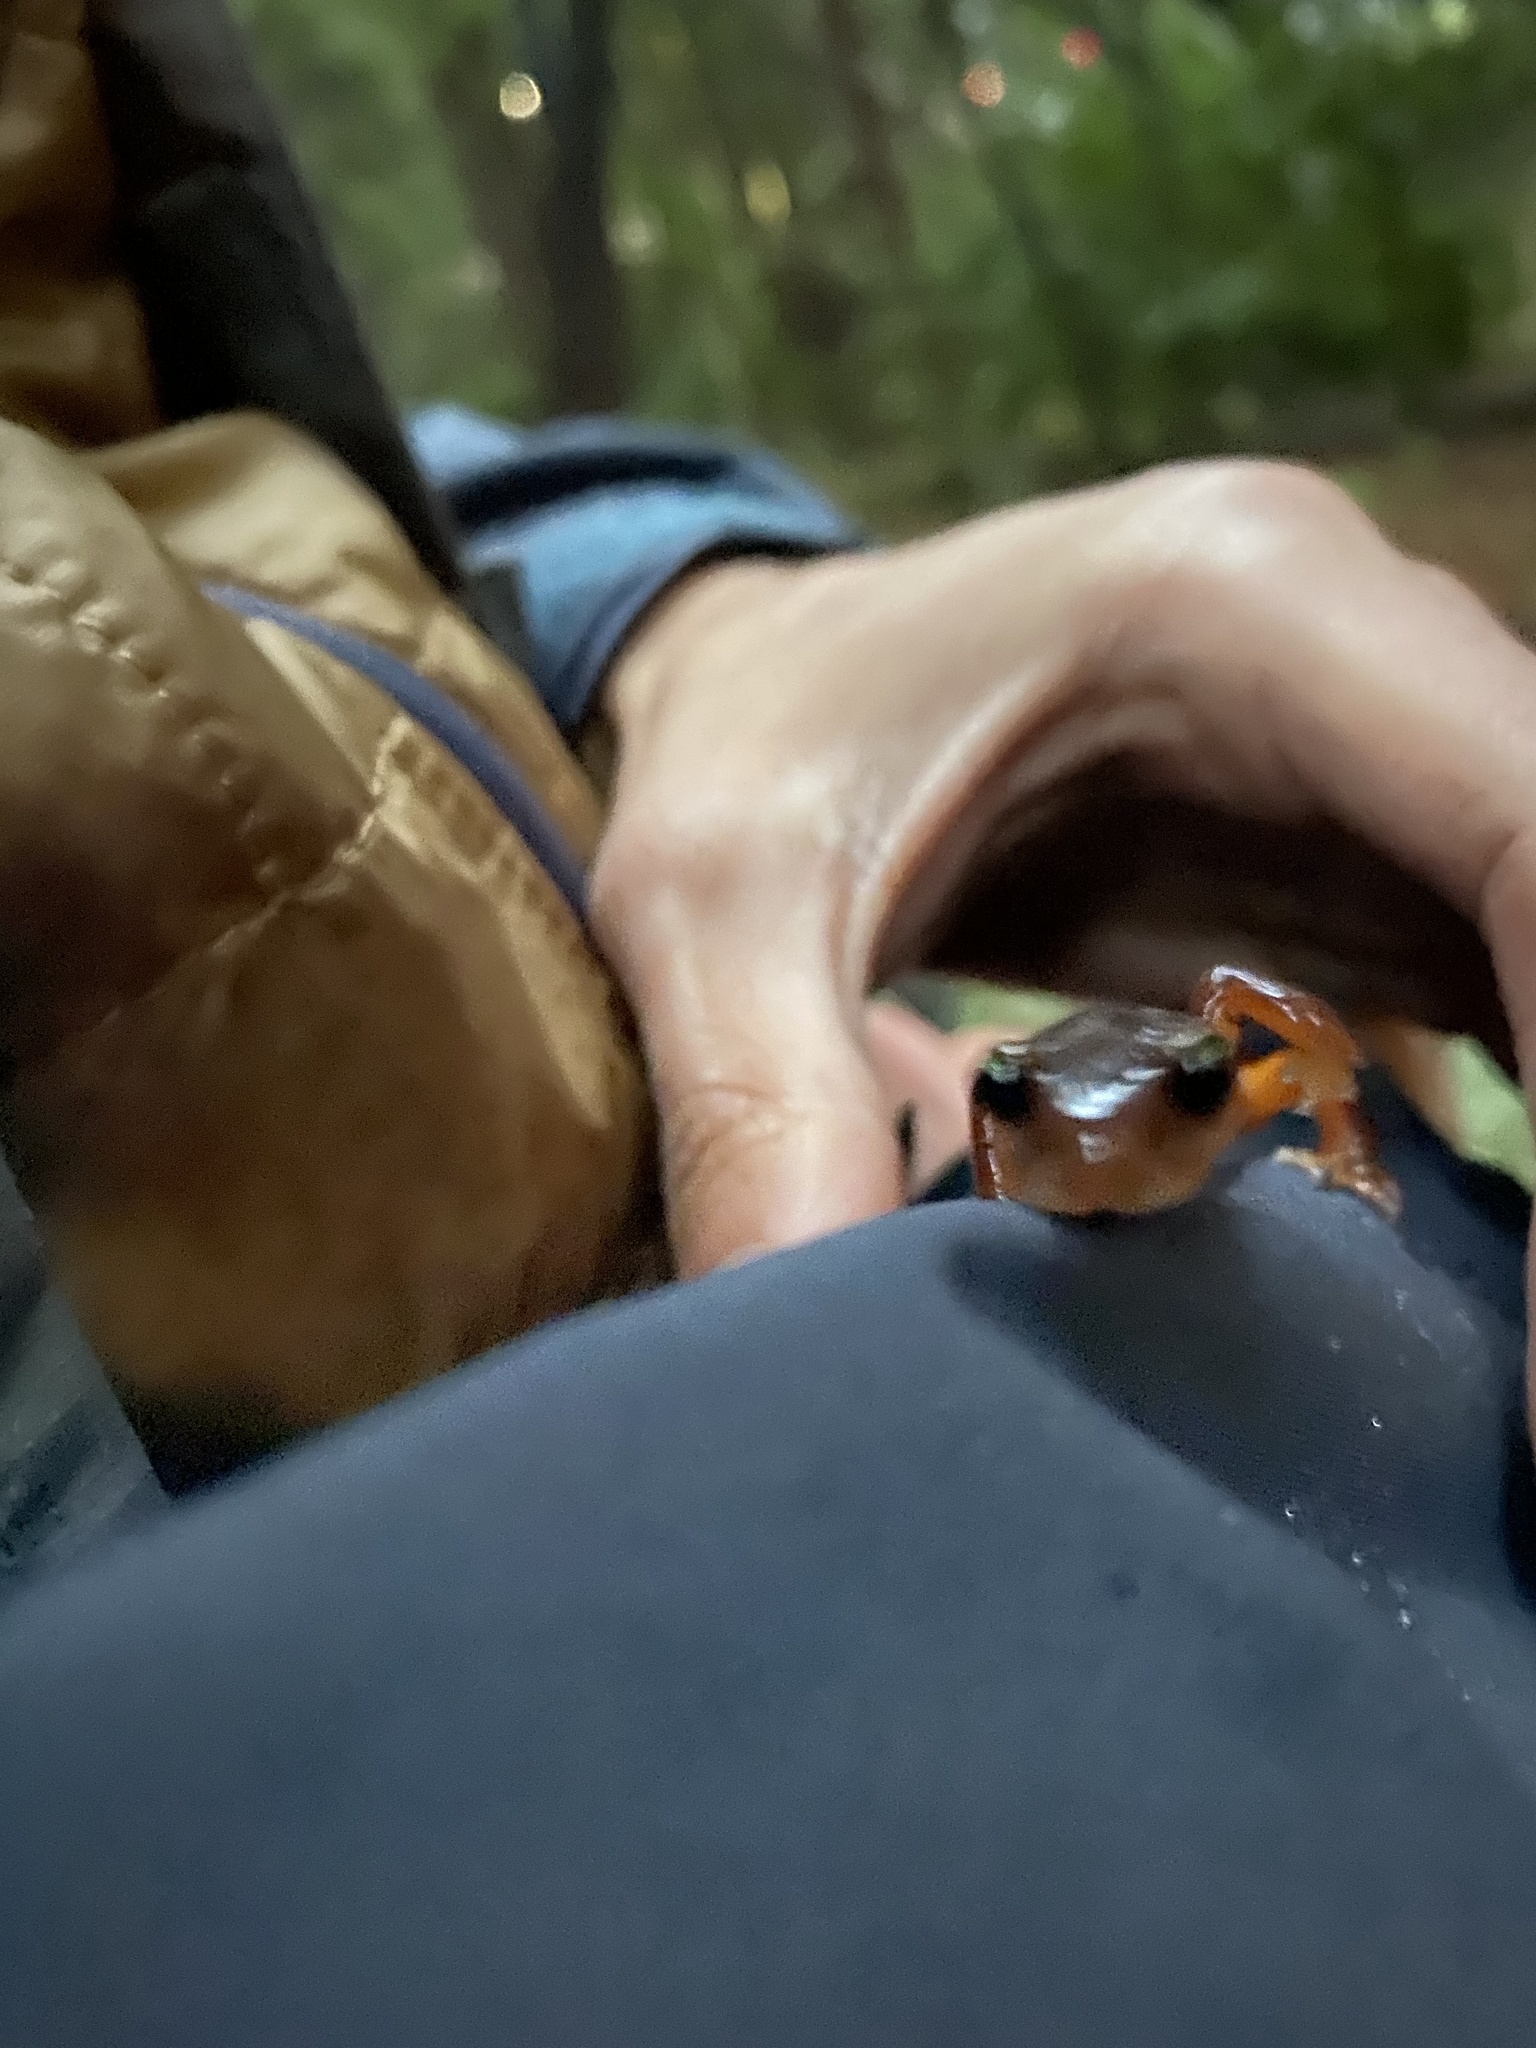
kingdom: Animalia
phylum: Chordata
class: Amphibia
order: Caudata
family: Plethodontidae
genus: Ensatina
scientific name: Ensatina eschscholtzii
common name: Ensatina
